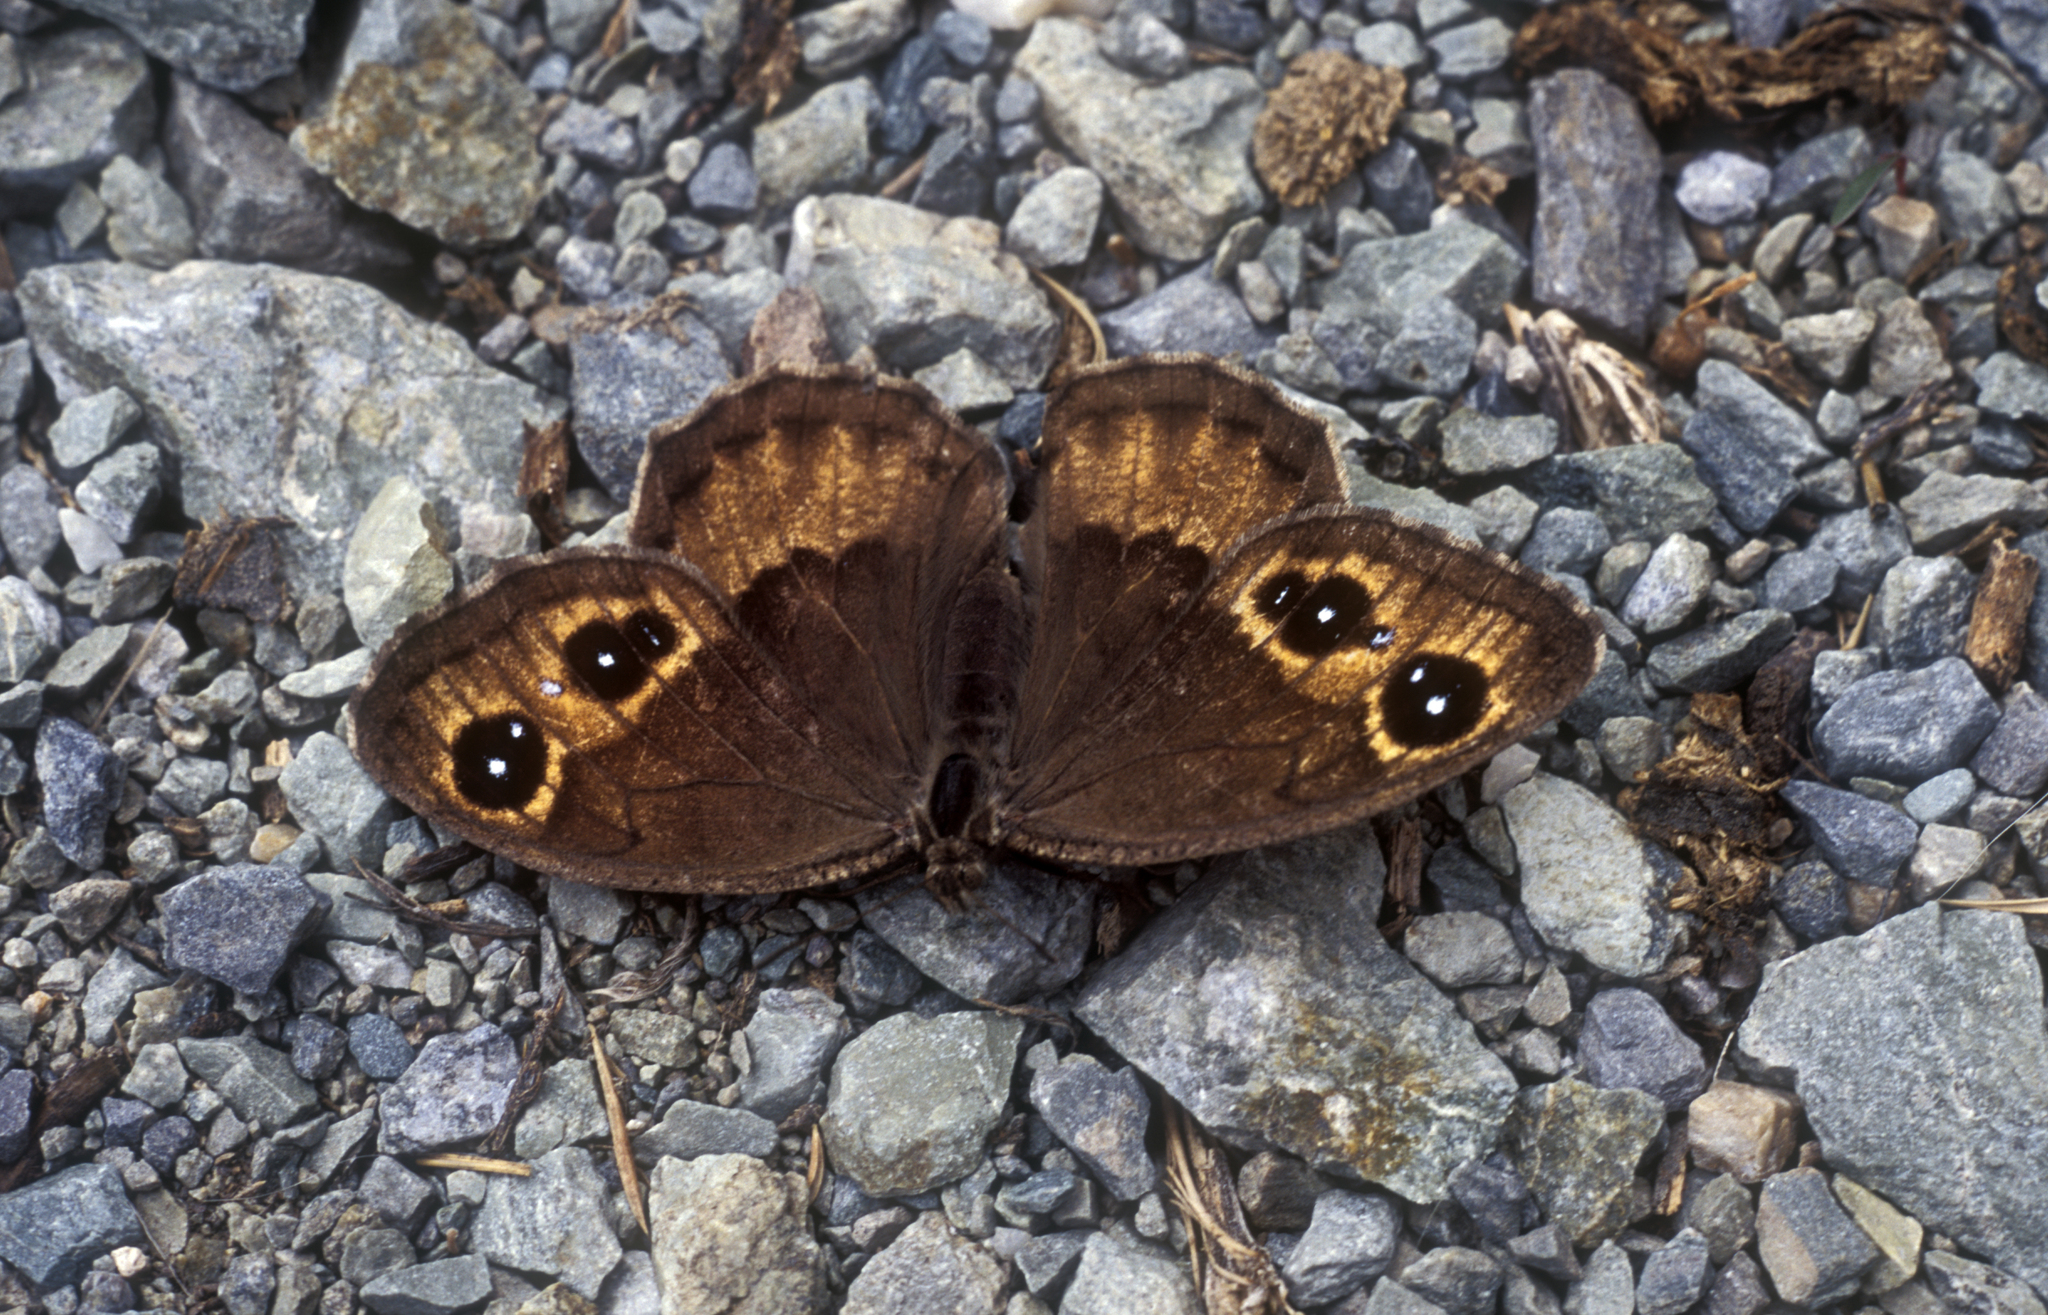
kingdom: Animalia
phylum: Arthropoda
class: Insecta
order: Lepidoptera
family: Nymphalidae
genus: Satyrus
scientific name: Satyrus ferula
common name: Great sooty satyr
